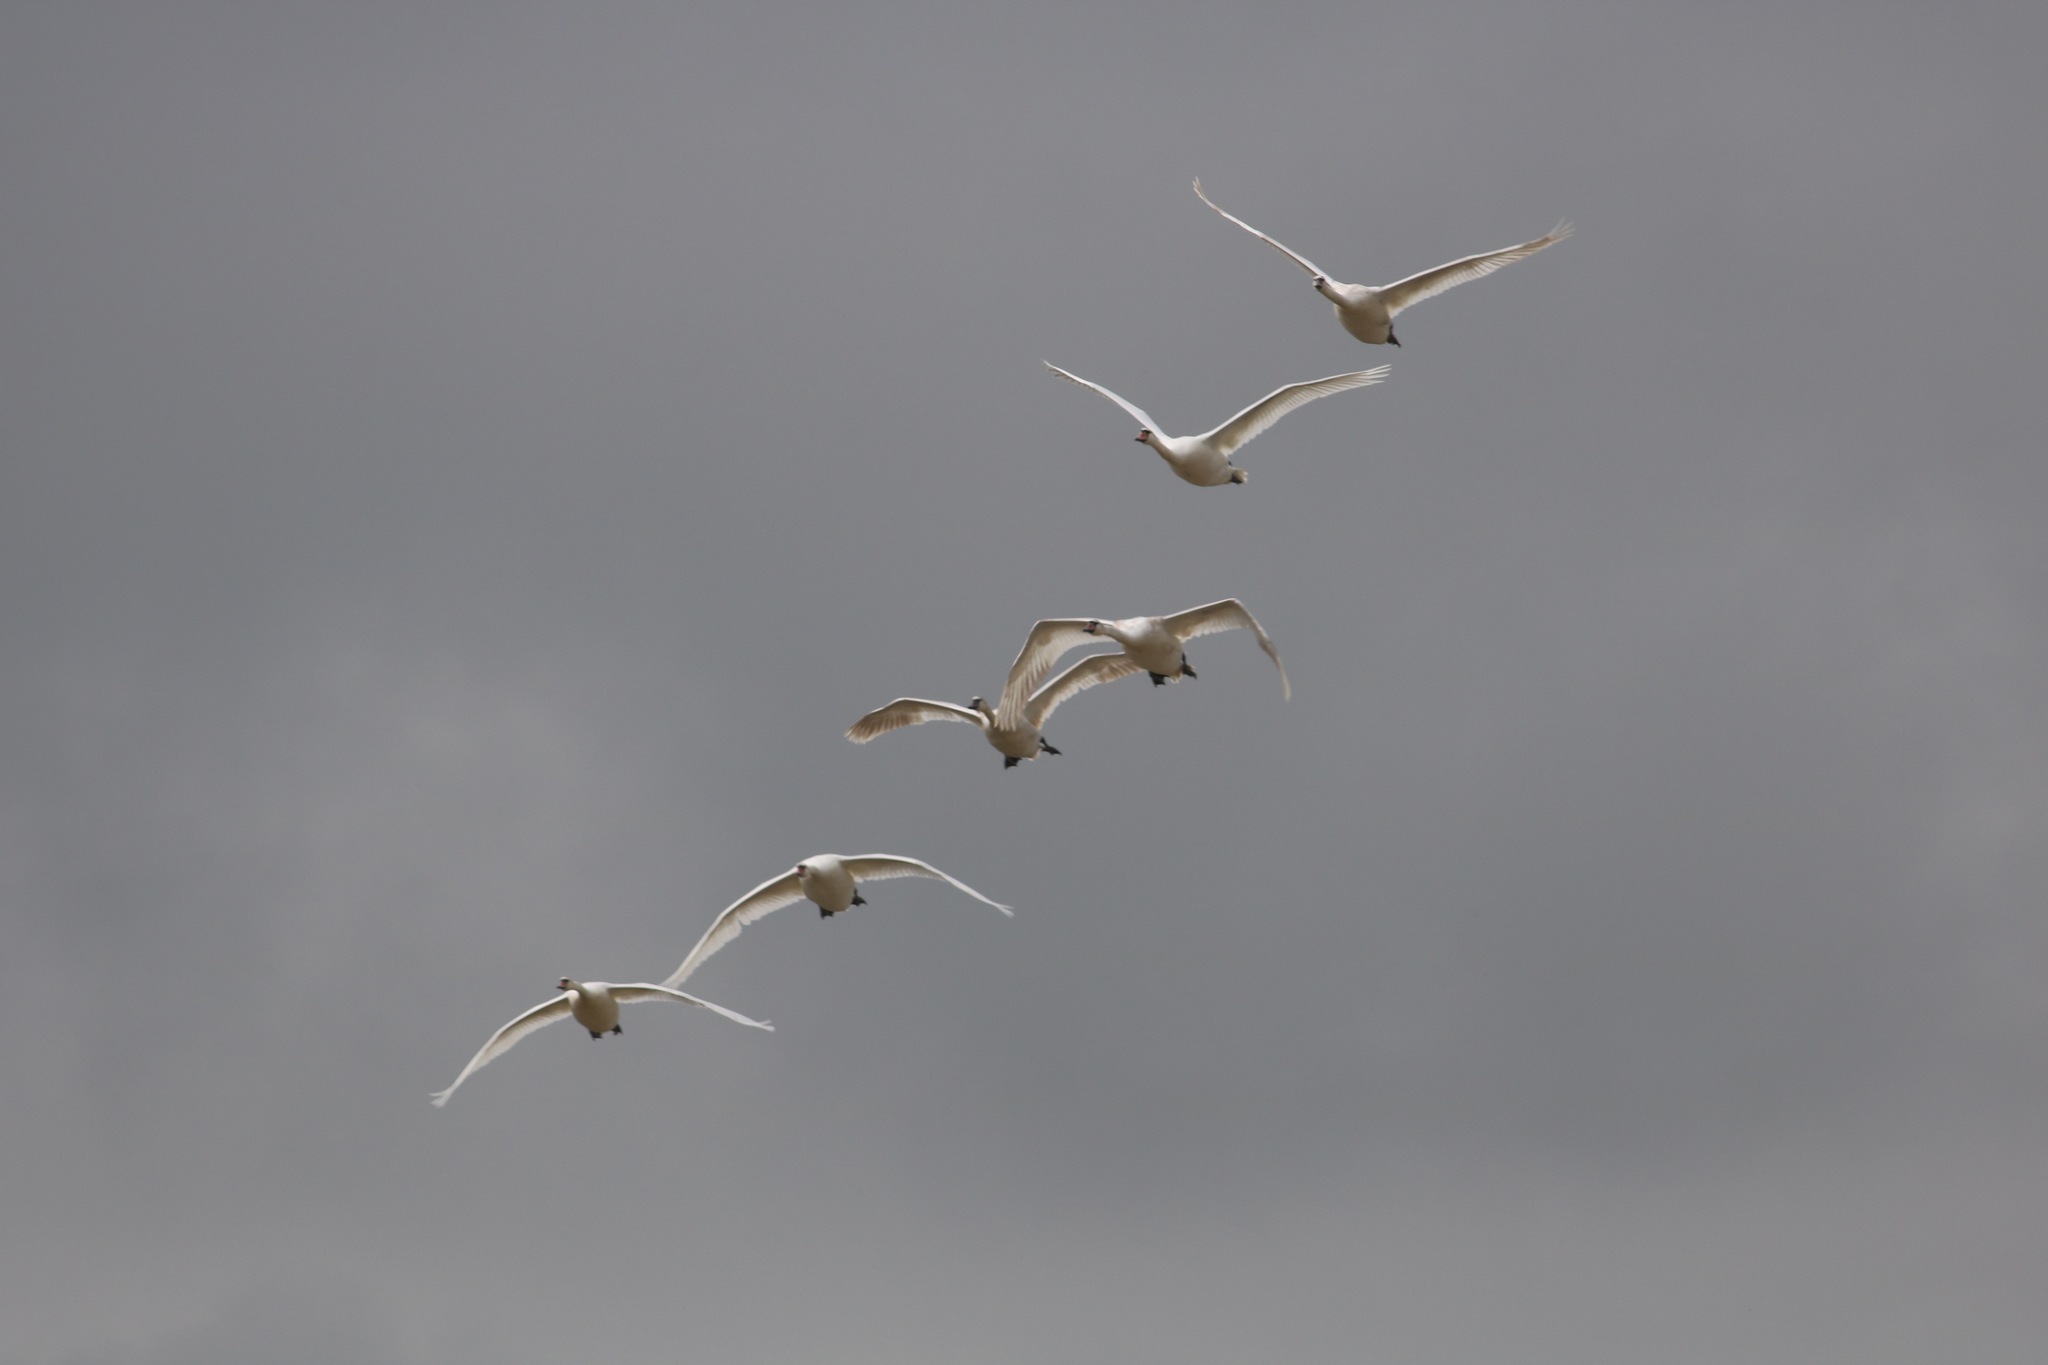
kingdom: Animalia
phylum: Chordata
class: Aves
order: Anseriformes
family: Anatidae
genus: Cygnus
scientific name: Cygnus olor
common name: Mute swan
